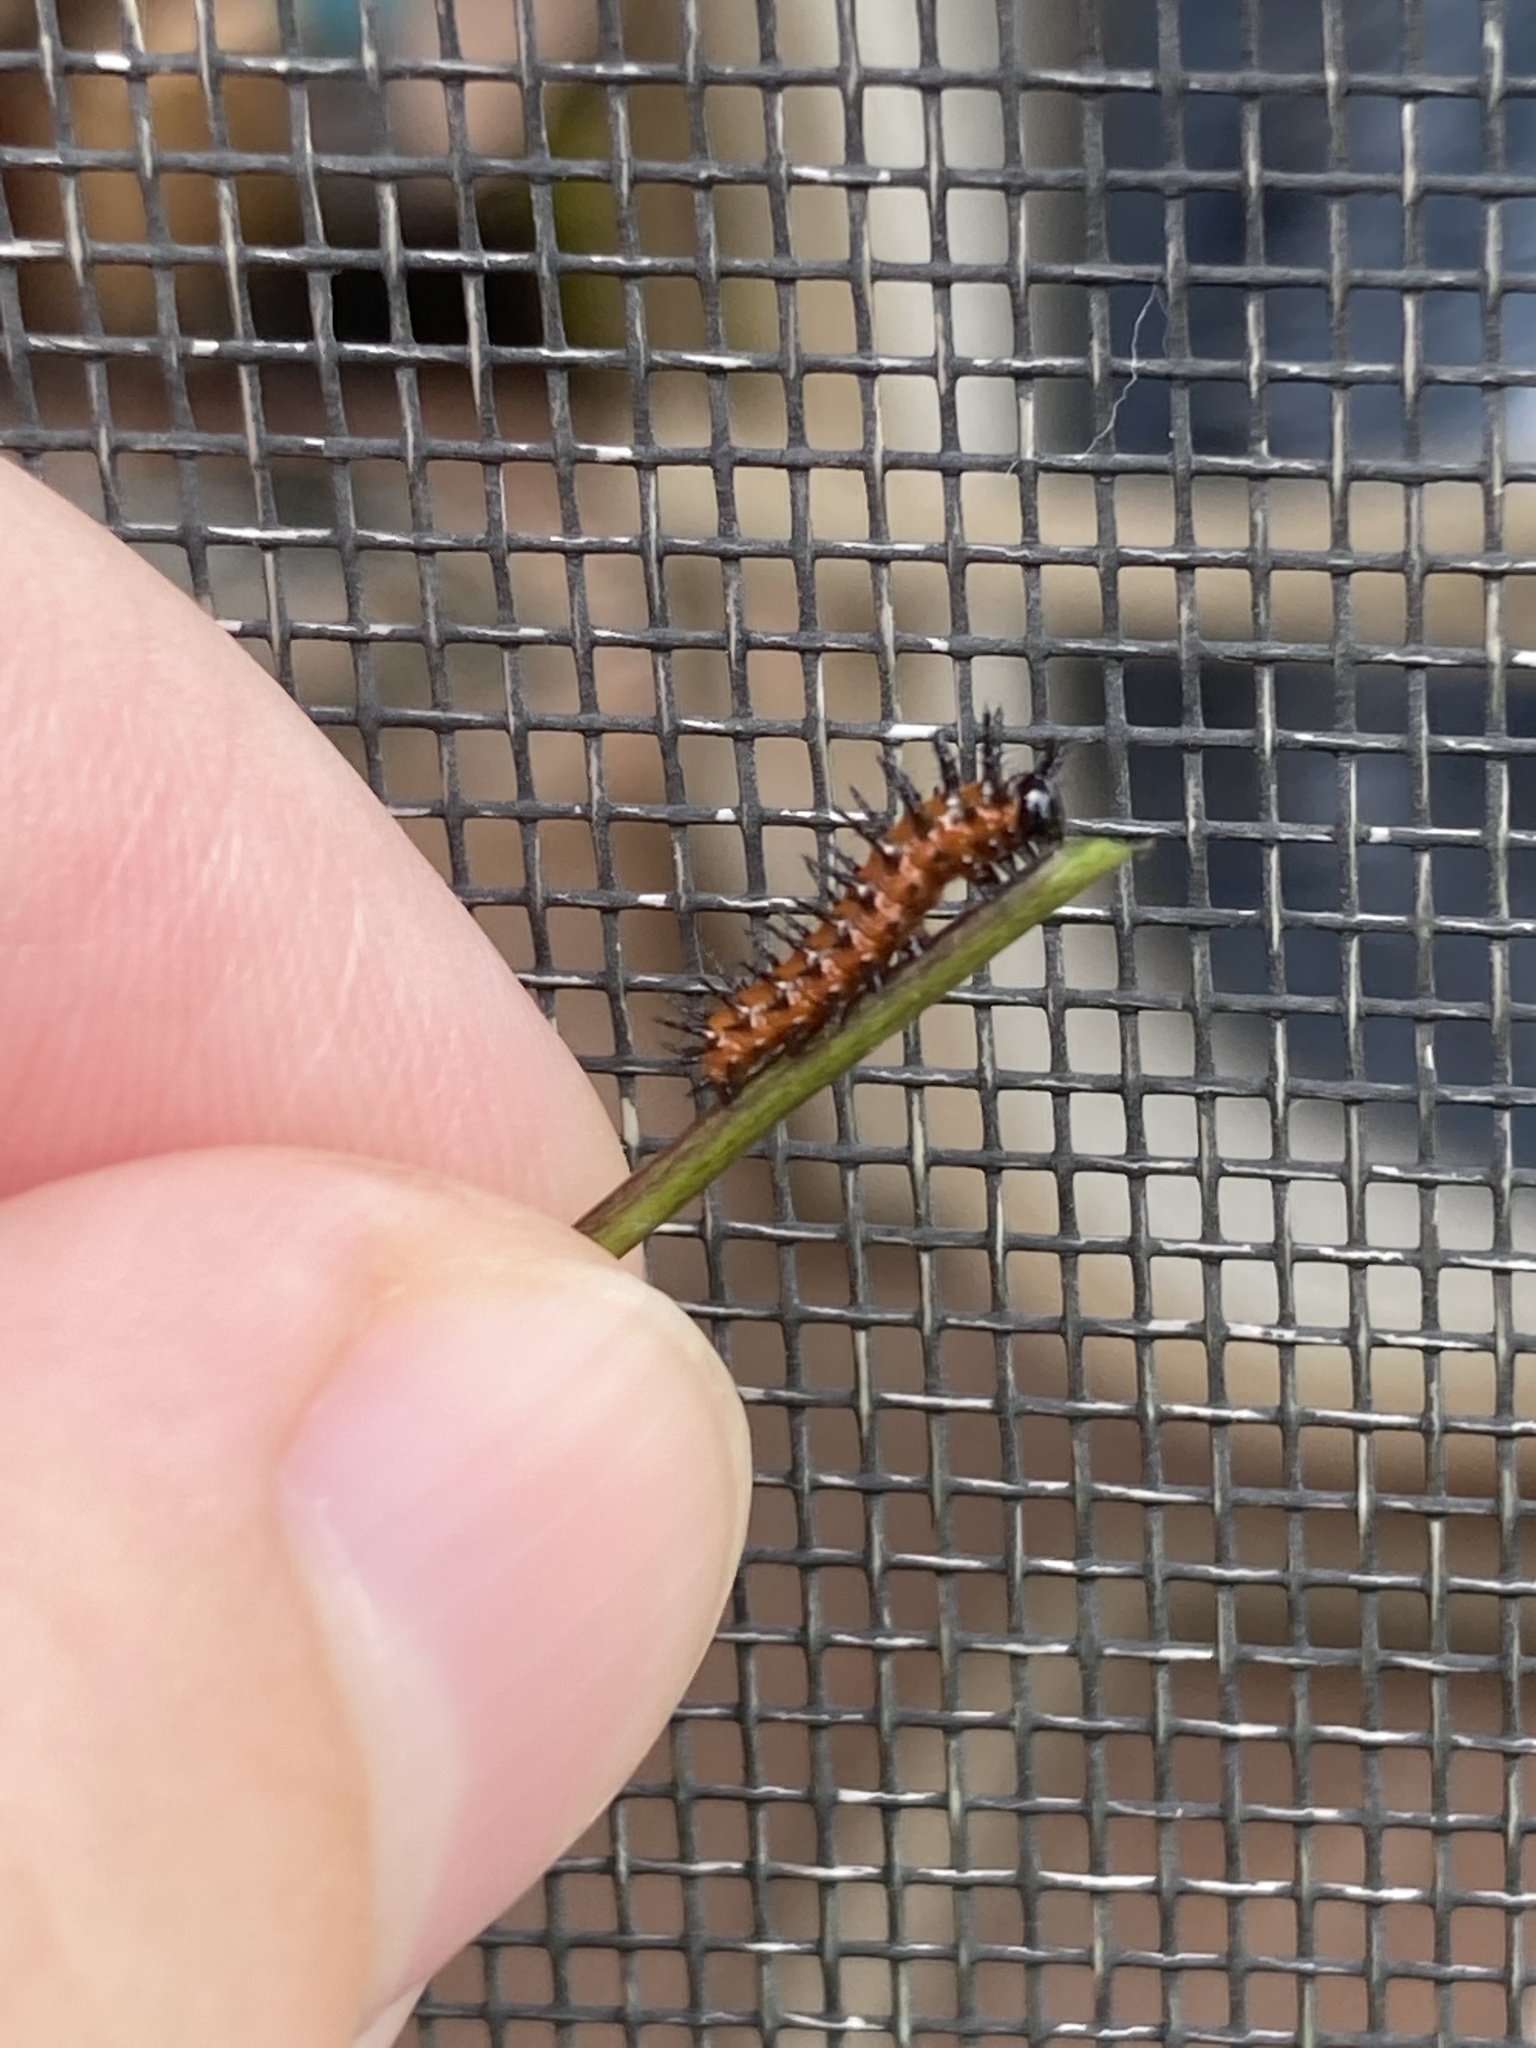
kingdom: Animalia
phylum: Arthropoda
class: Insecta
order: Lepidoptera
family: Nymphalidae
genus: Dione
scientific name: Dione vanillae
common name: Gulf fritillary
